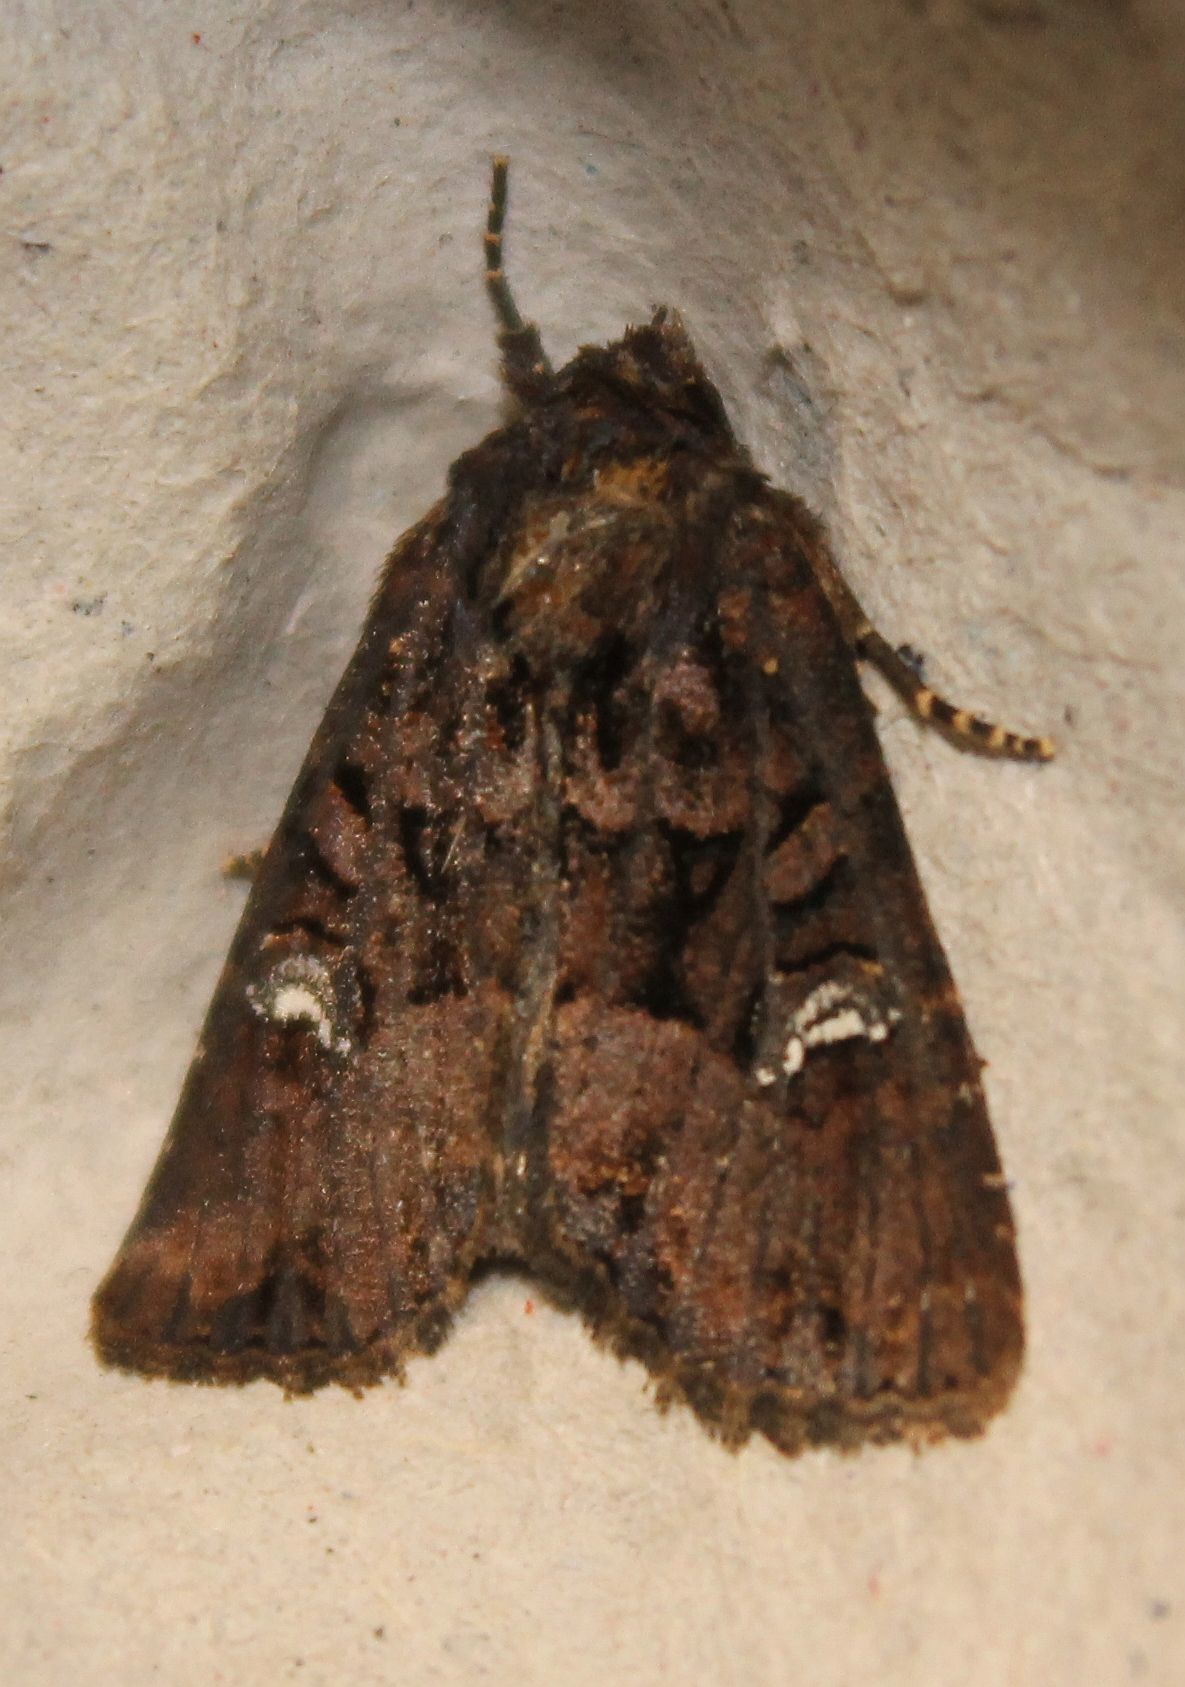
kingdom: Animalia
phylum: Arthropoda
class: Insecta
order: Lepidoptera
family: Noctuidae
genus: Mesapamea
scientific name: Mesapamea
